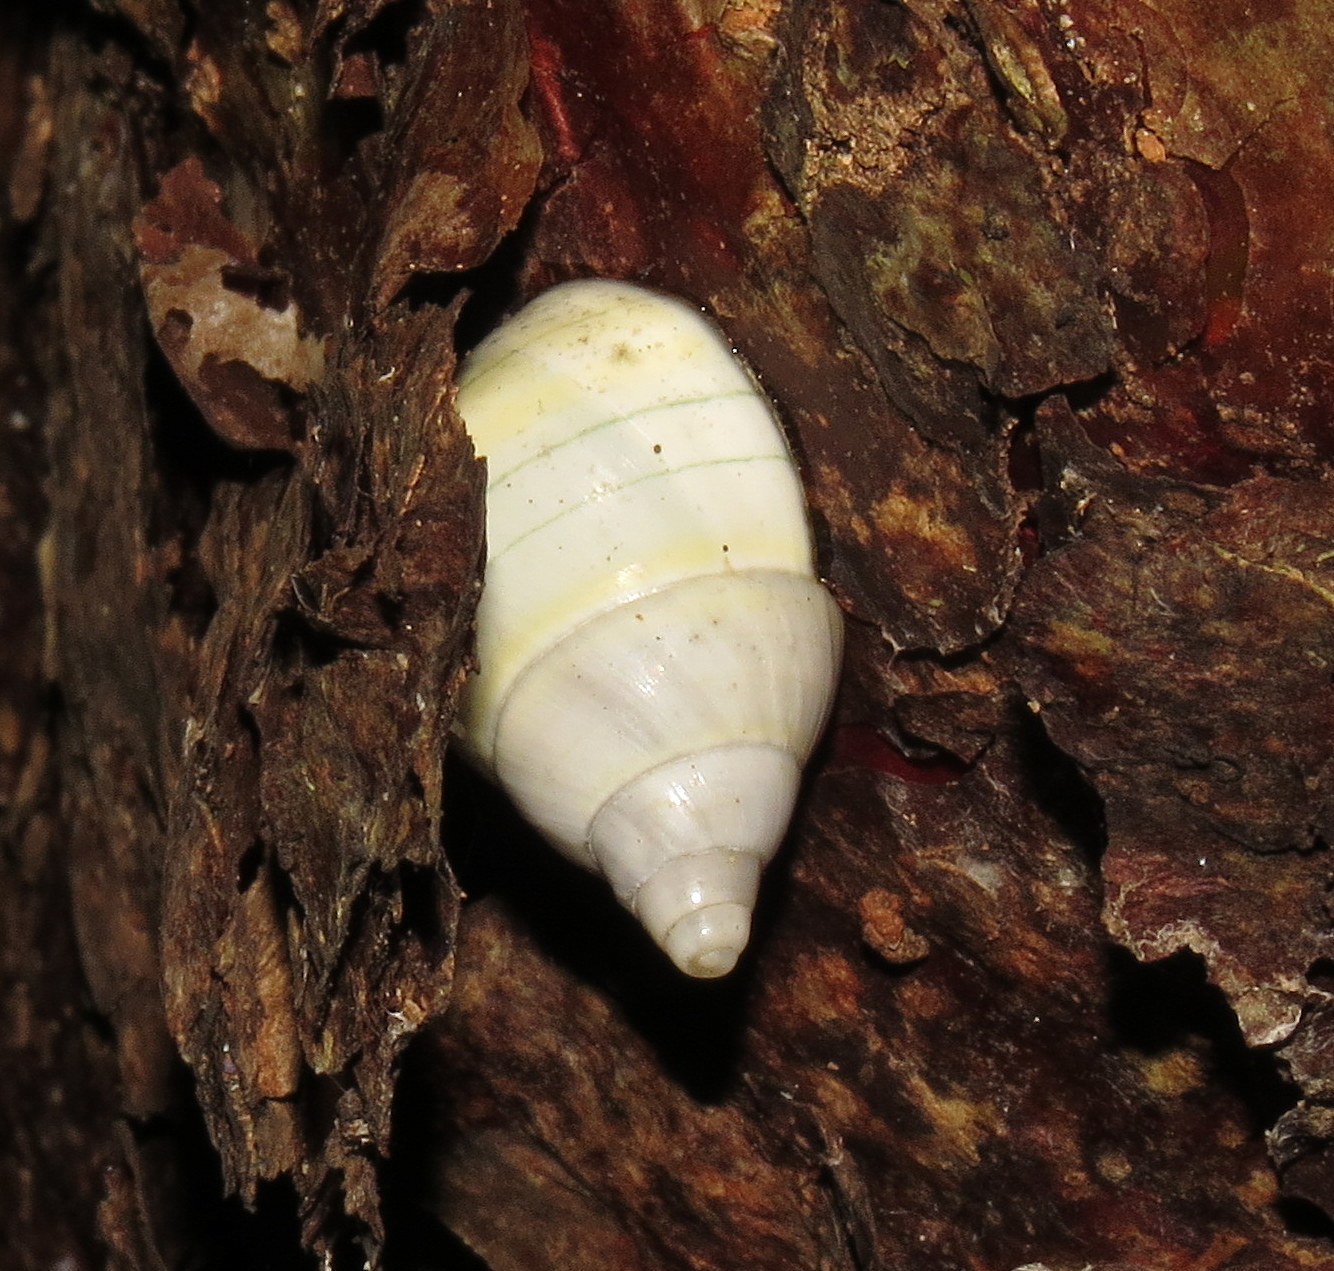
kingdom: Animalia
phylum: Mollusca
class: Gastropoda
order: Stylommatophora
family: Orthalicidae
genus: Liguus
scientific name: Liguus fasciatus
